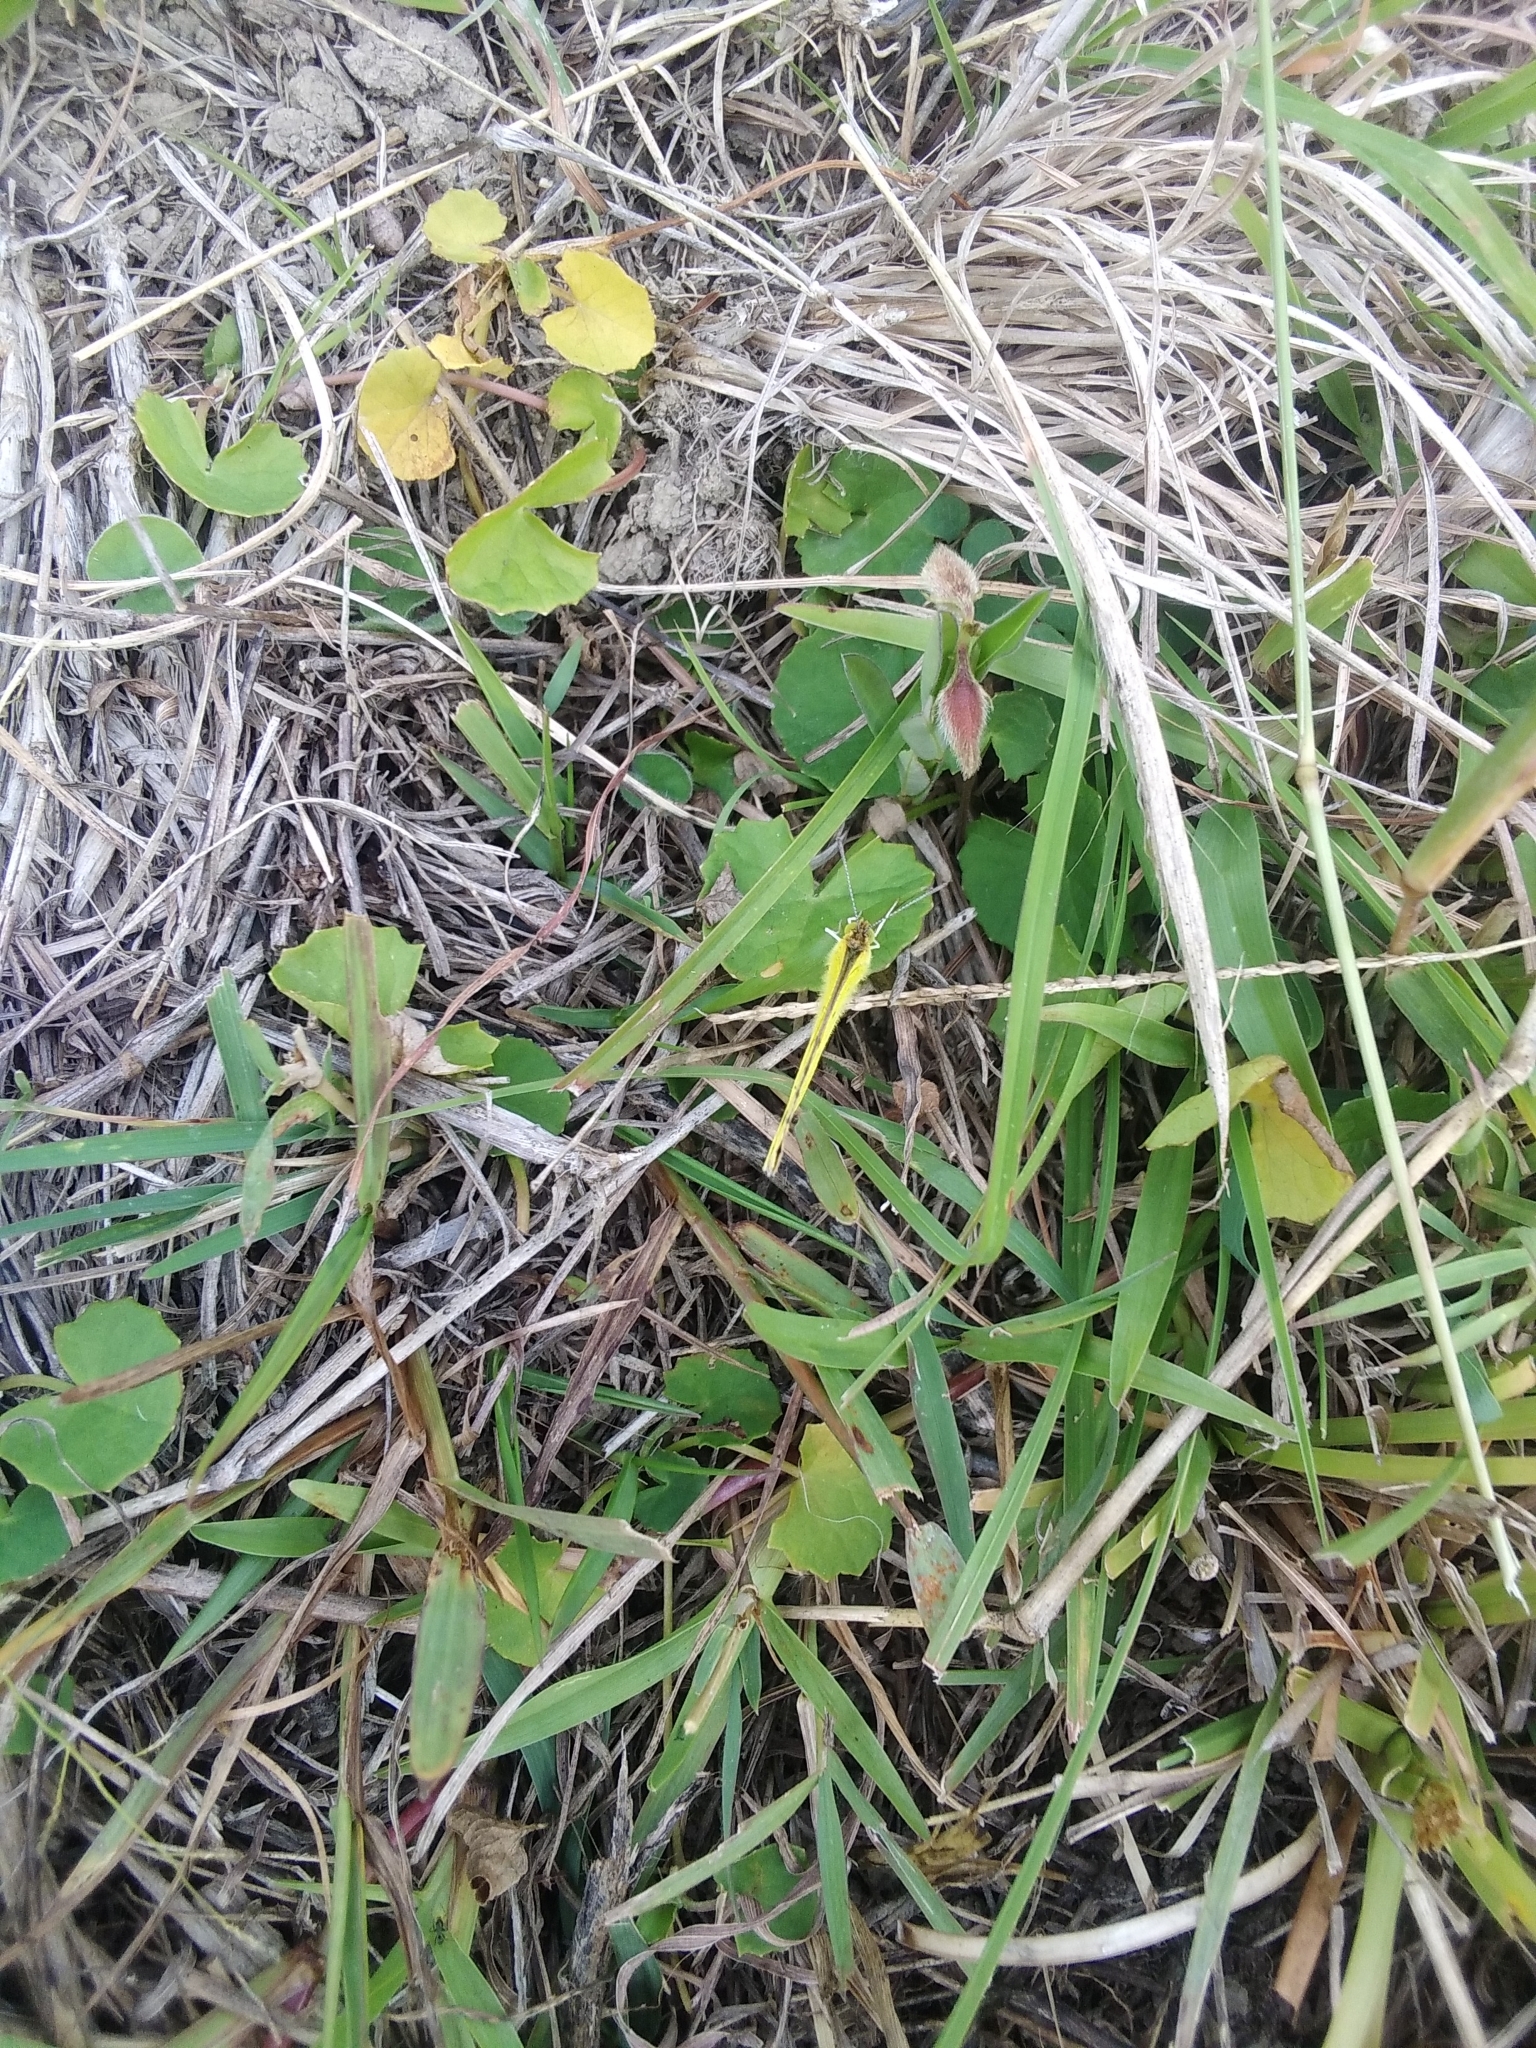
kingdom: Animalia
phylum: Arthropoda
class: Insecta
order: Lepidoptera
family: Pieridae
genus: Eurema
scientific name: Eurema brigitta
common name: Small grass yellow
